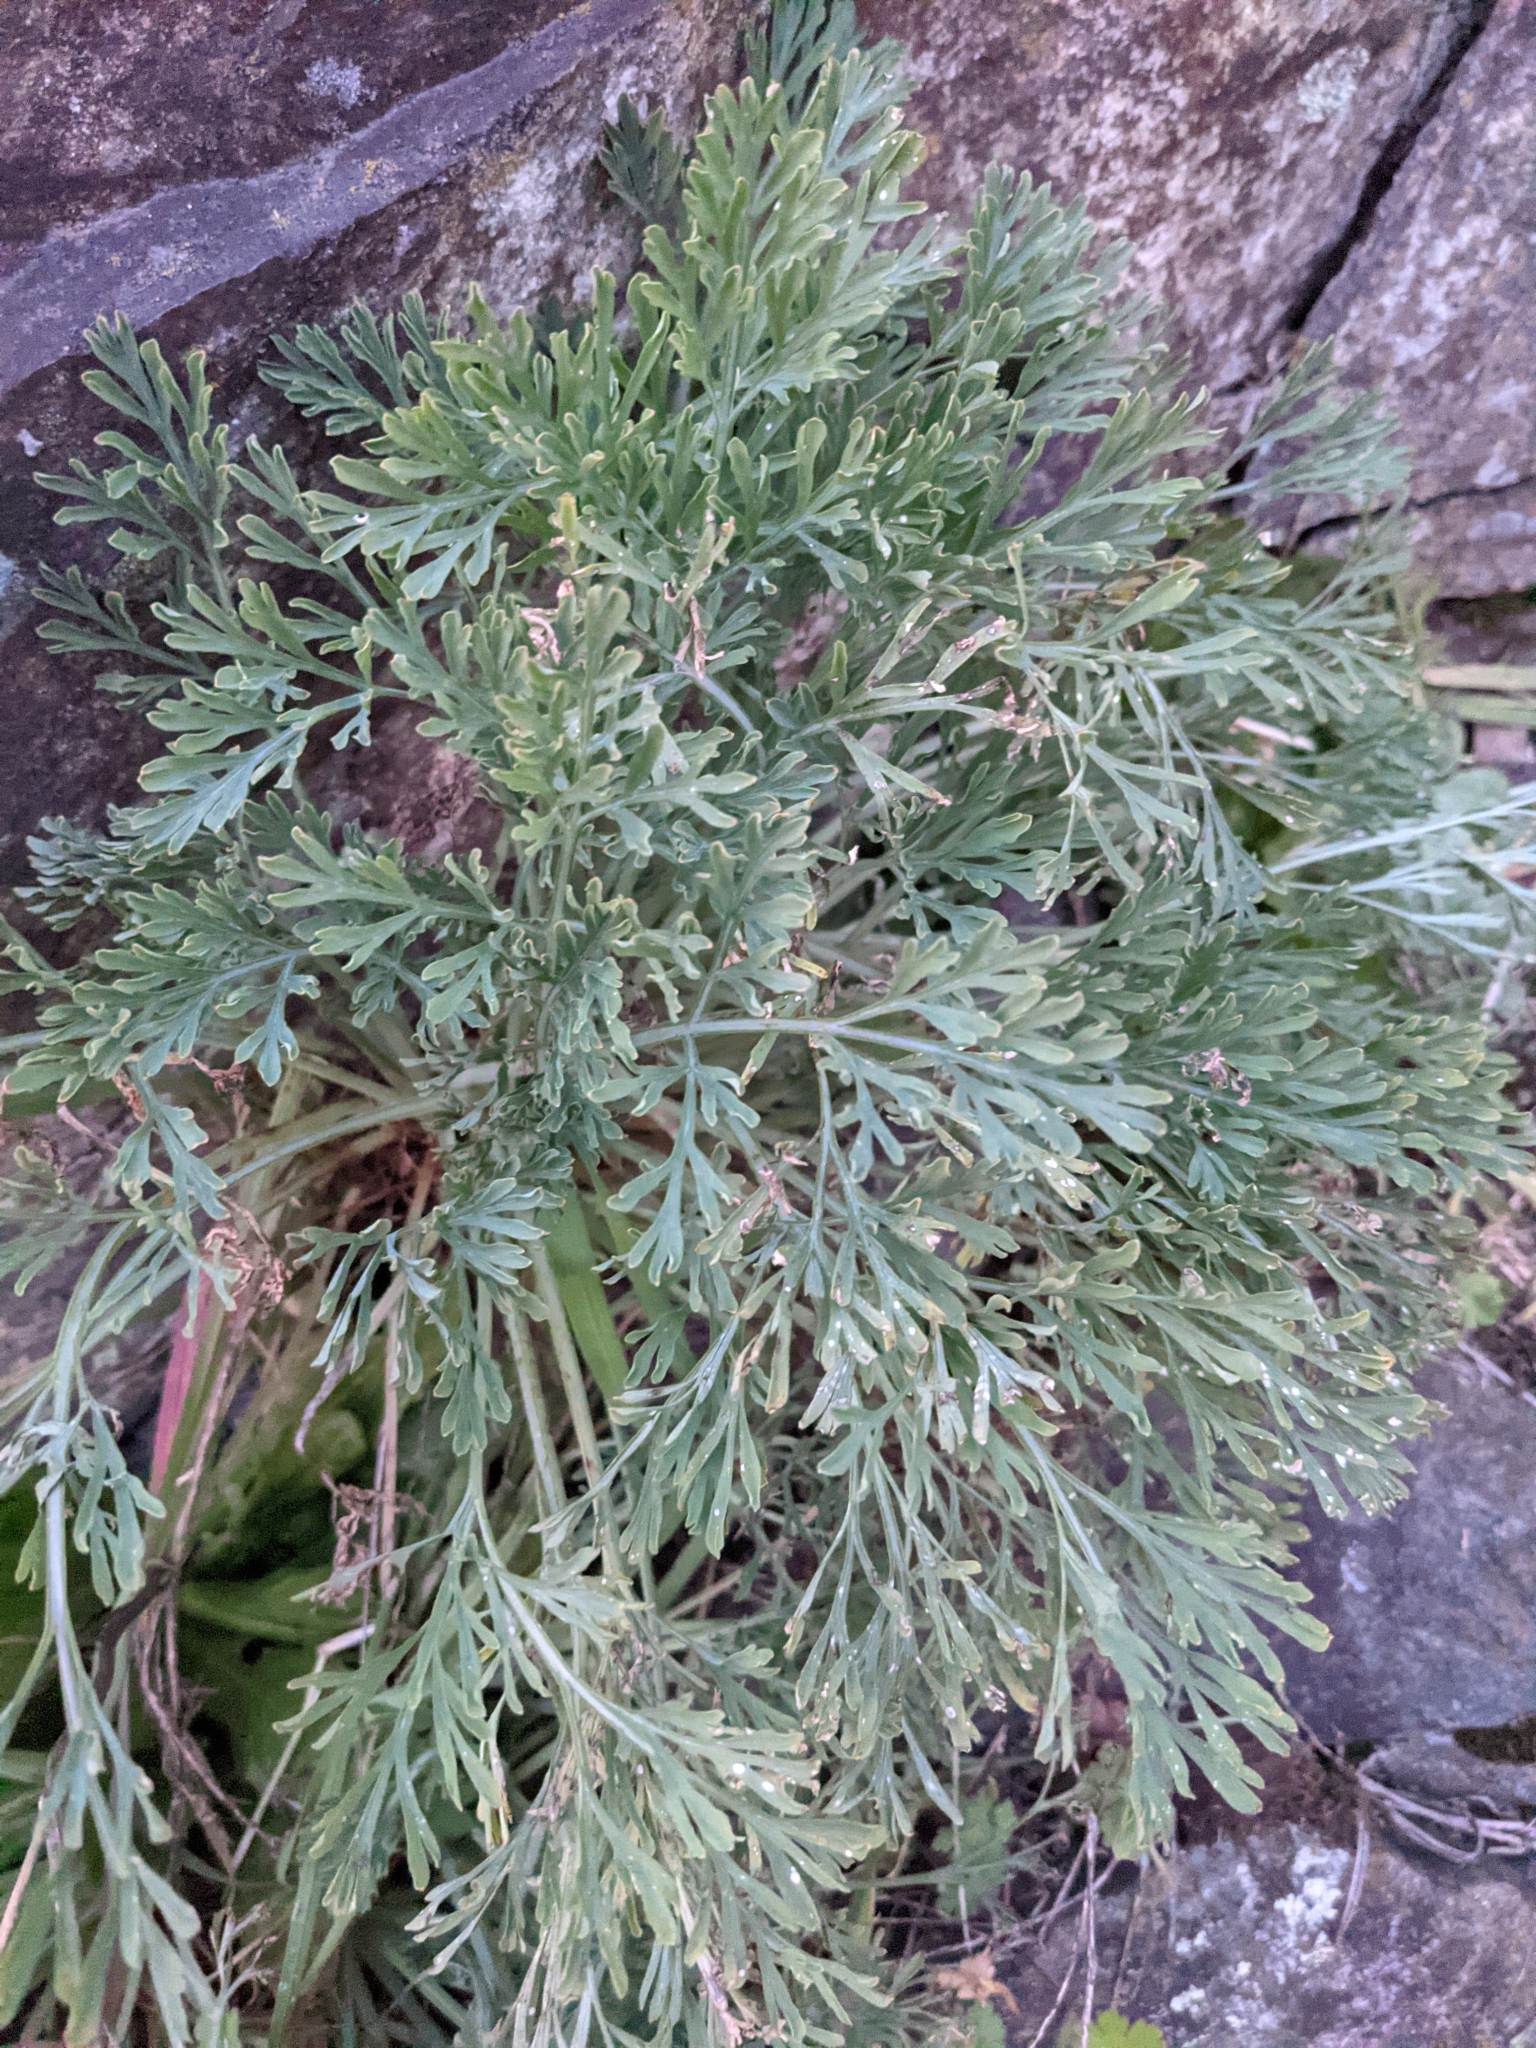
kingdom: Plantae
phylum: Tracheophyta
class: Magnoliopsida
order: Ranunculales
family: Papaveraceae
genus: Eschscholzia
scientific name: Eschscholzia californica
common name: California poppy
